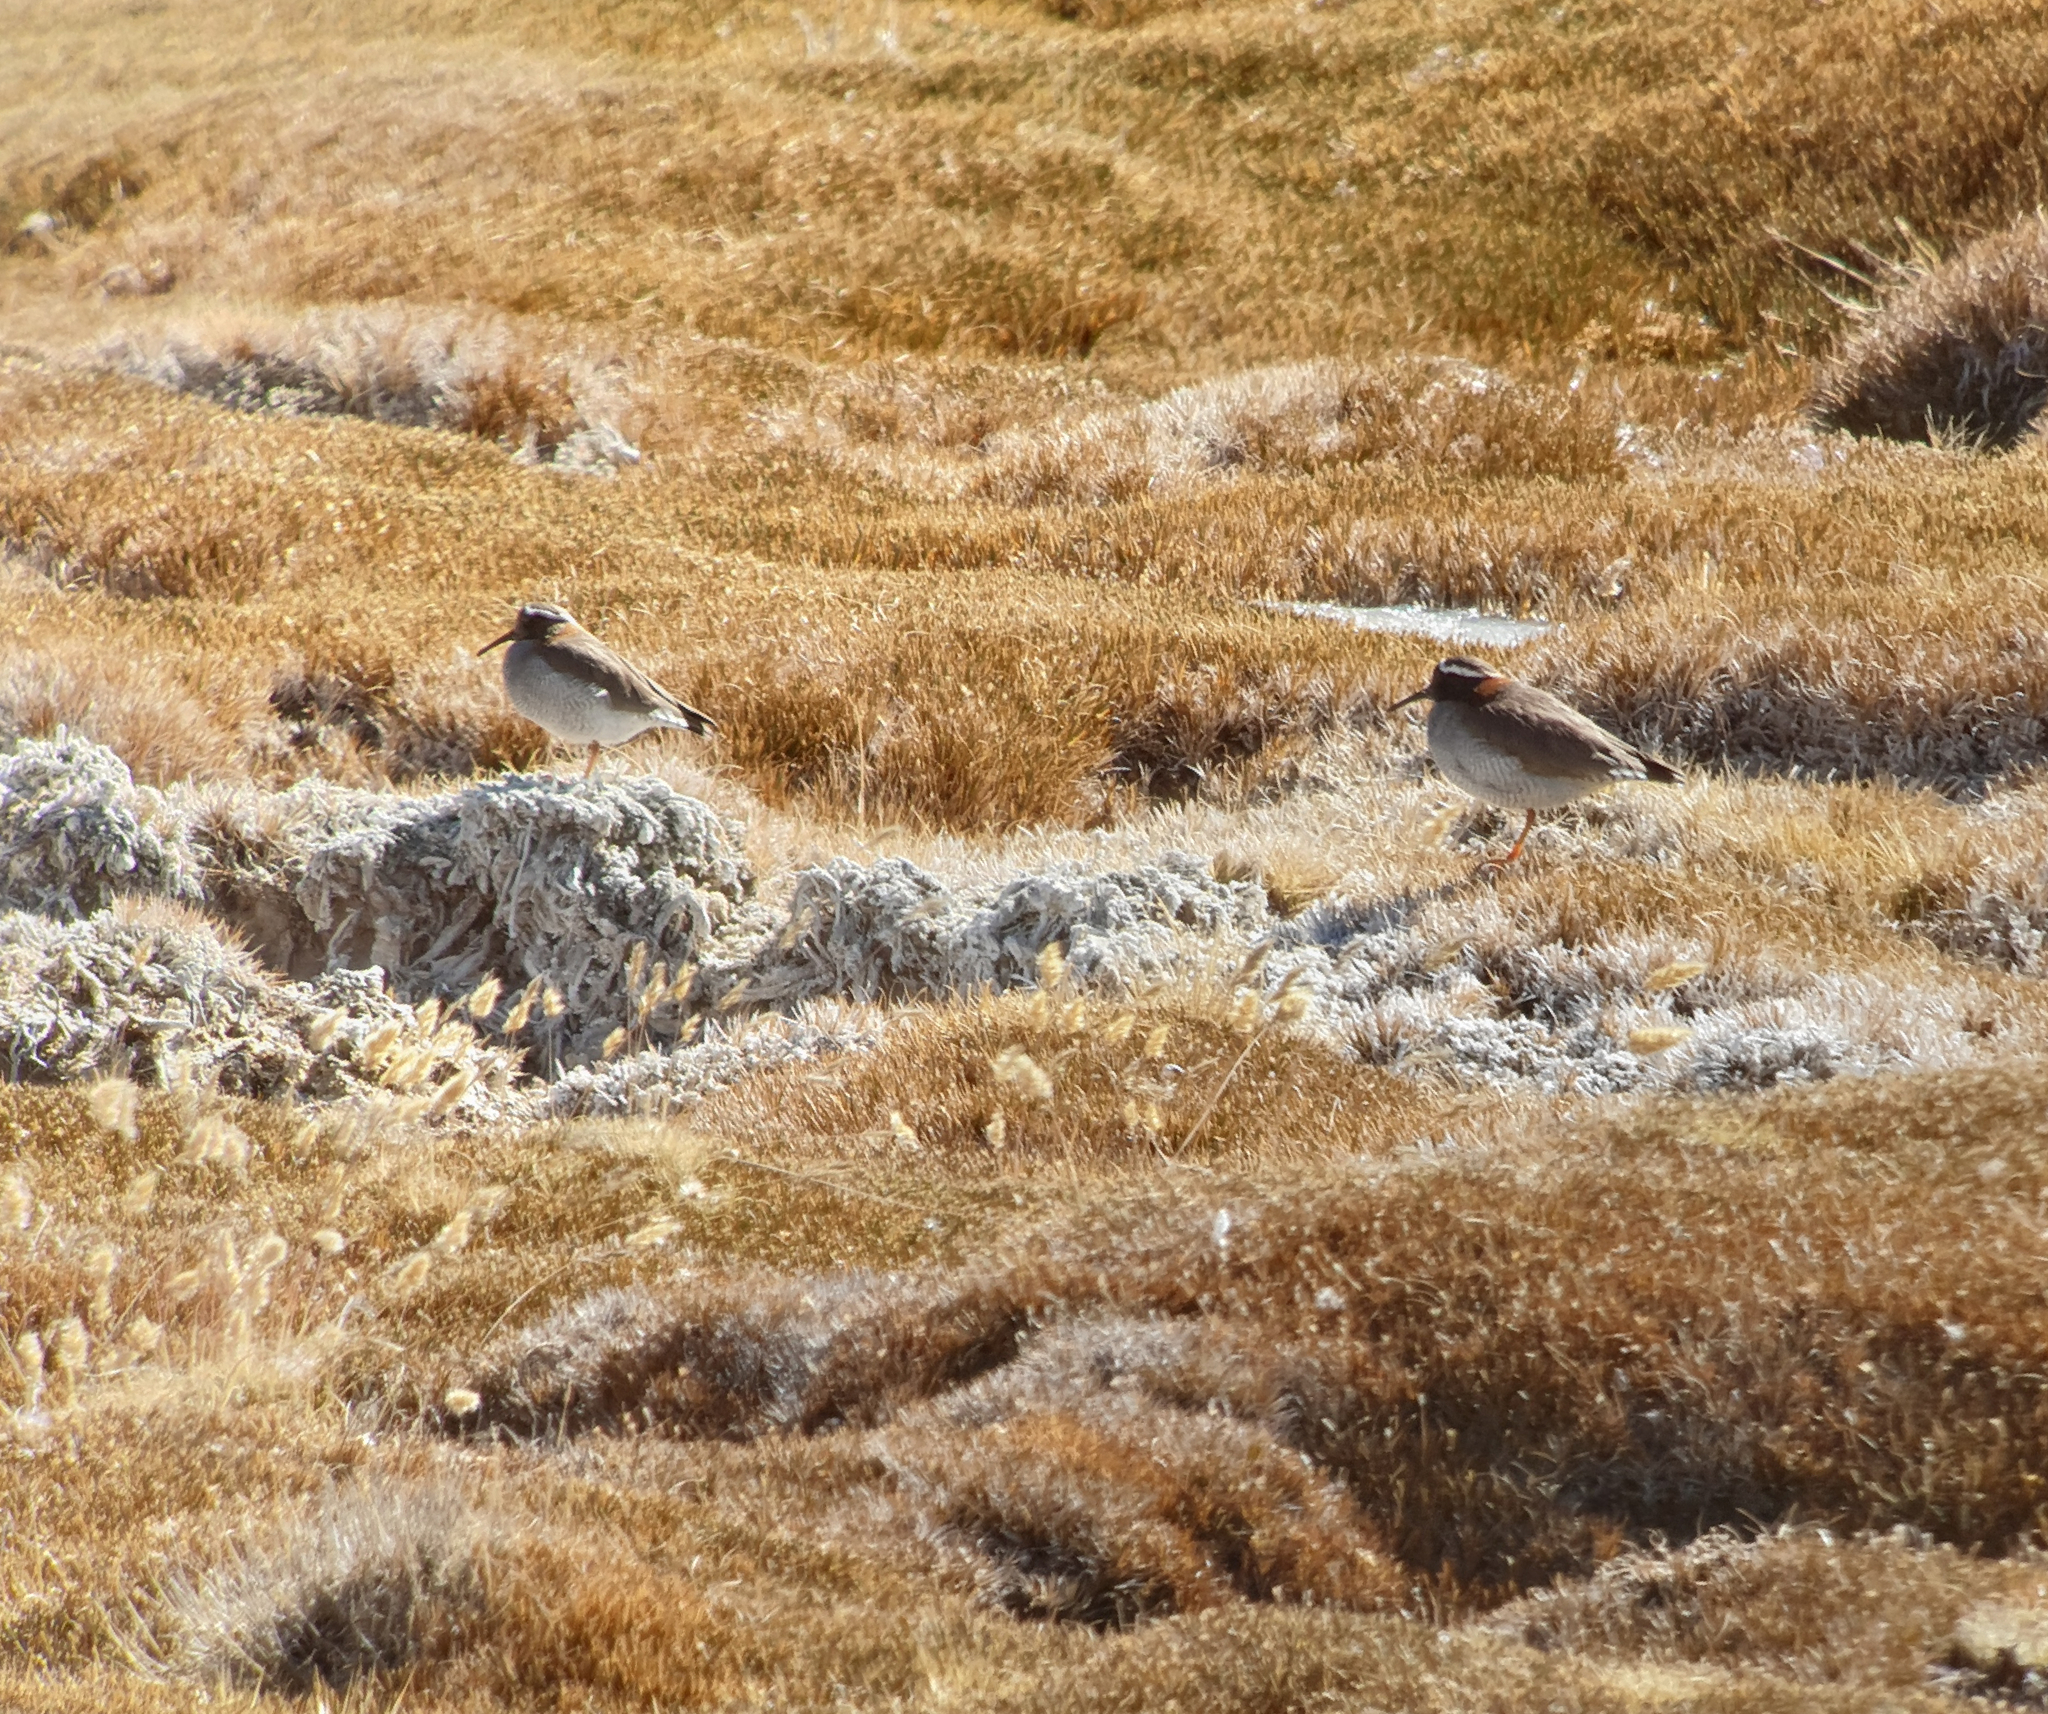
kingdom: Animalia
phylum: Chordata
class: Aves
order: Charadriiformes
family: Charadriidae
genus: Phegornis
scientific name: Phegornis mitchellii
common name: Diademed sandpiper-plover
